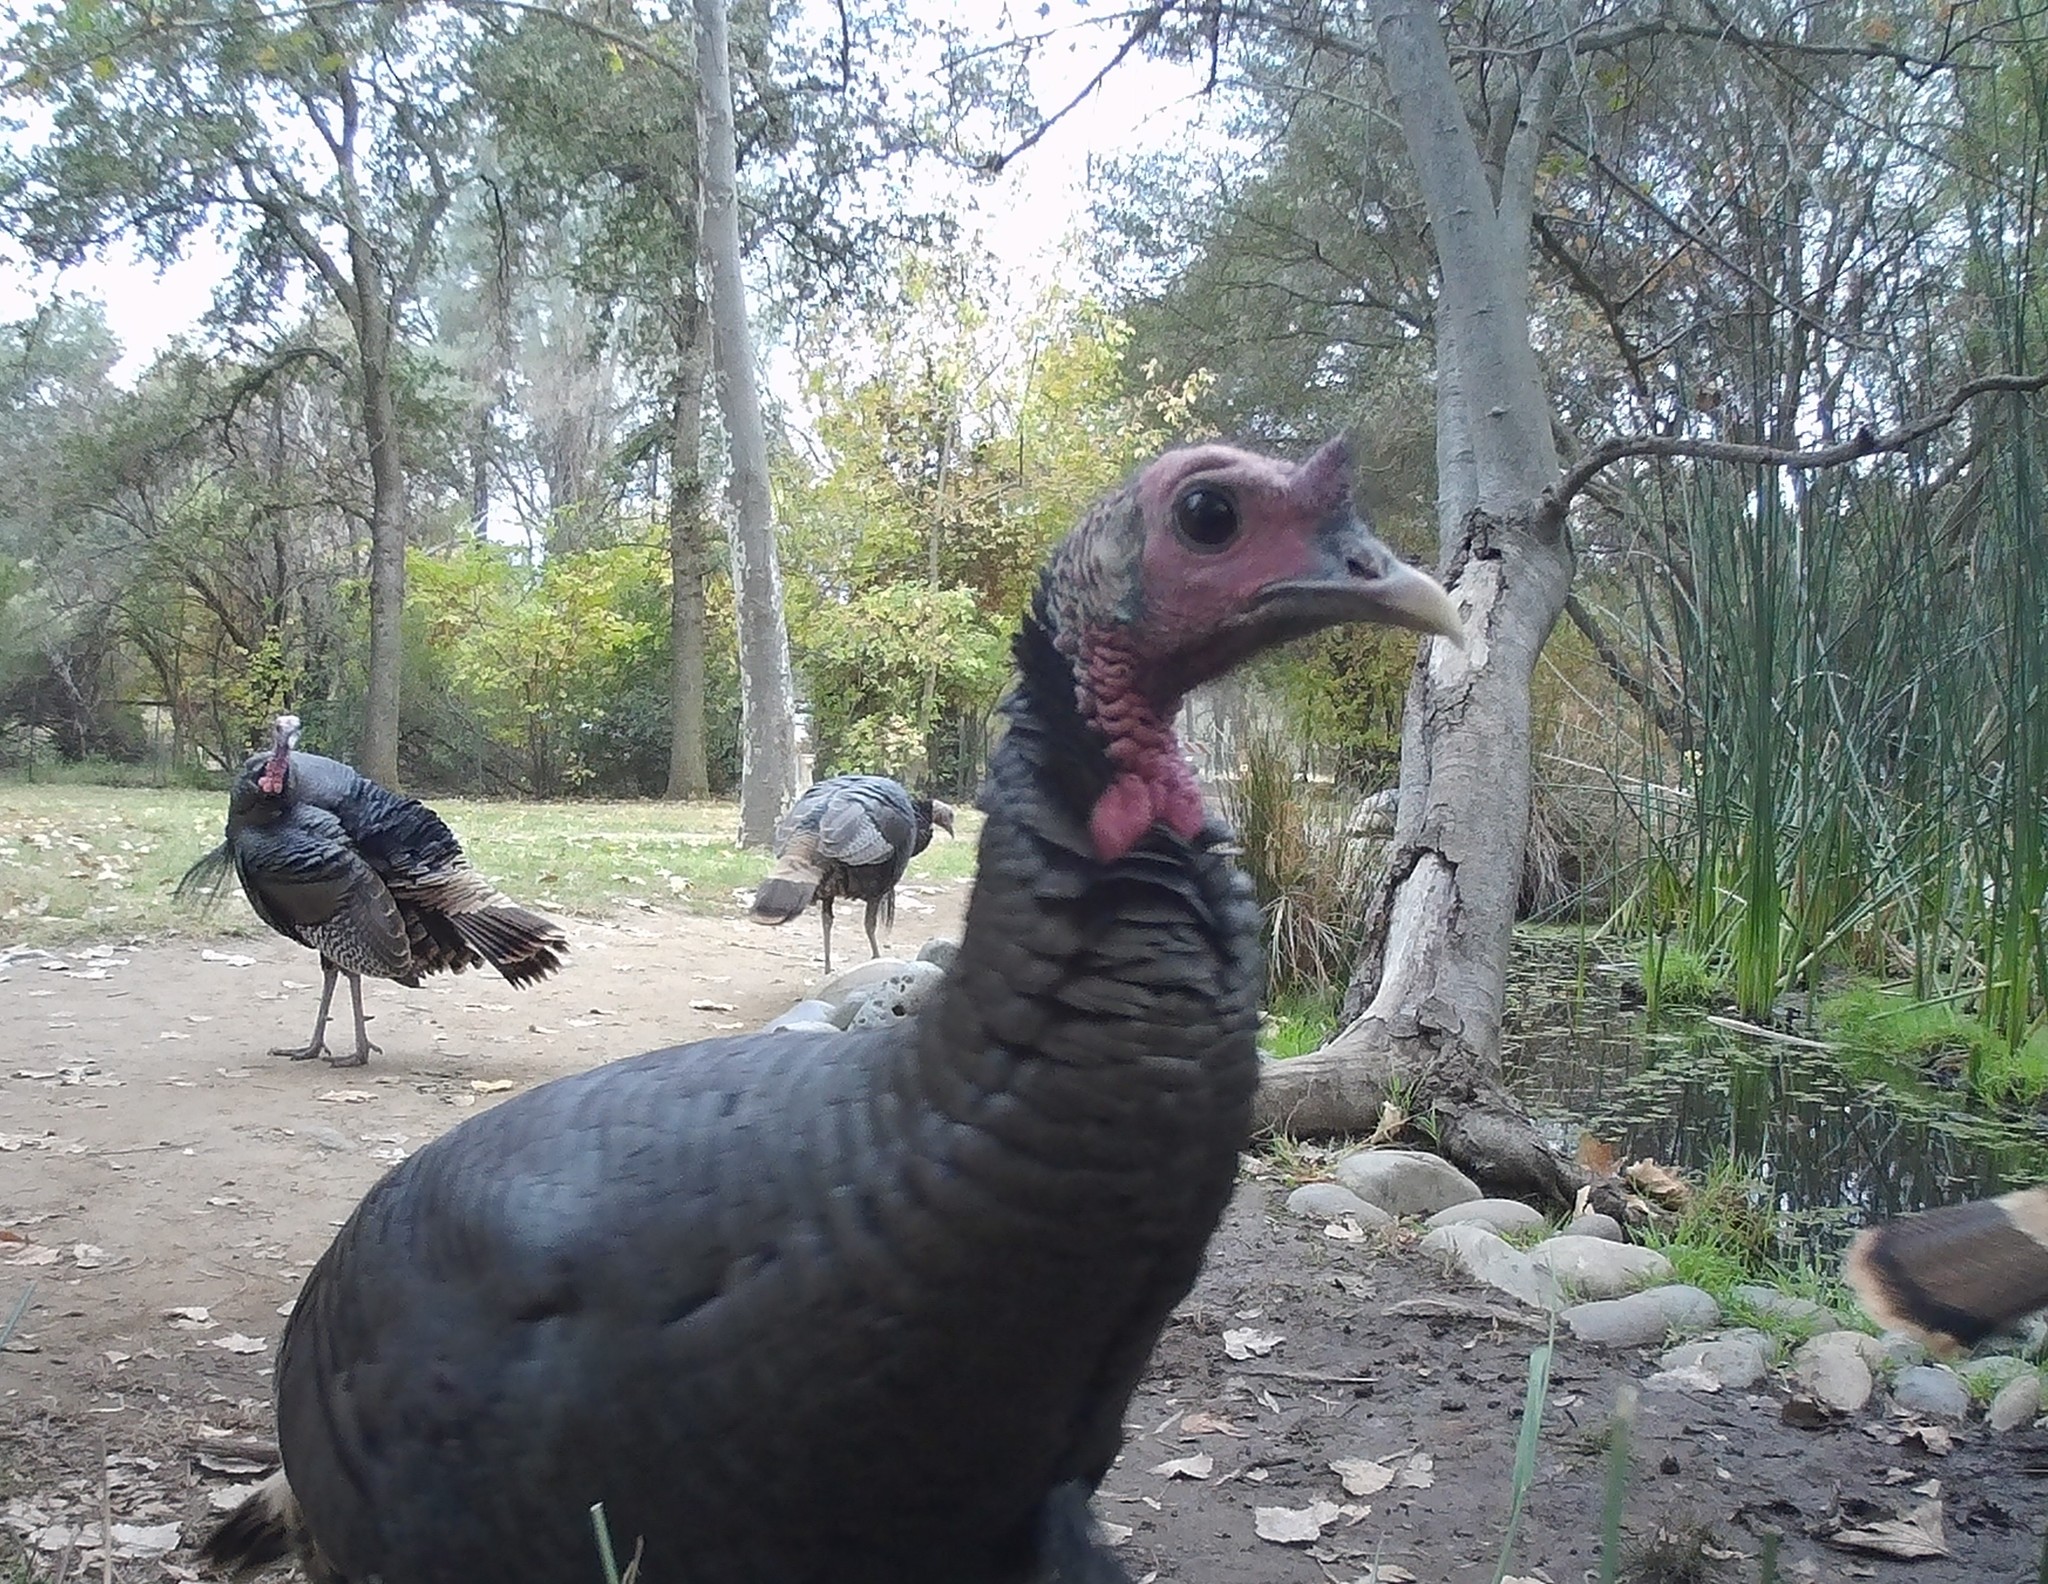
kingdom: Animalia
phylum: Chordata
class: Aves
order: Galliformes
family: Phasianidae
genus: Meleagris
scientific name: Meleagris gallopavo
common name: Wild turkey
